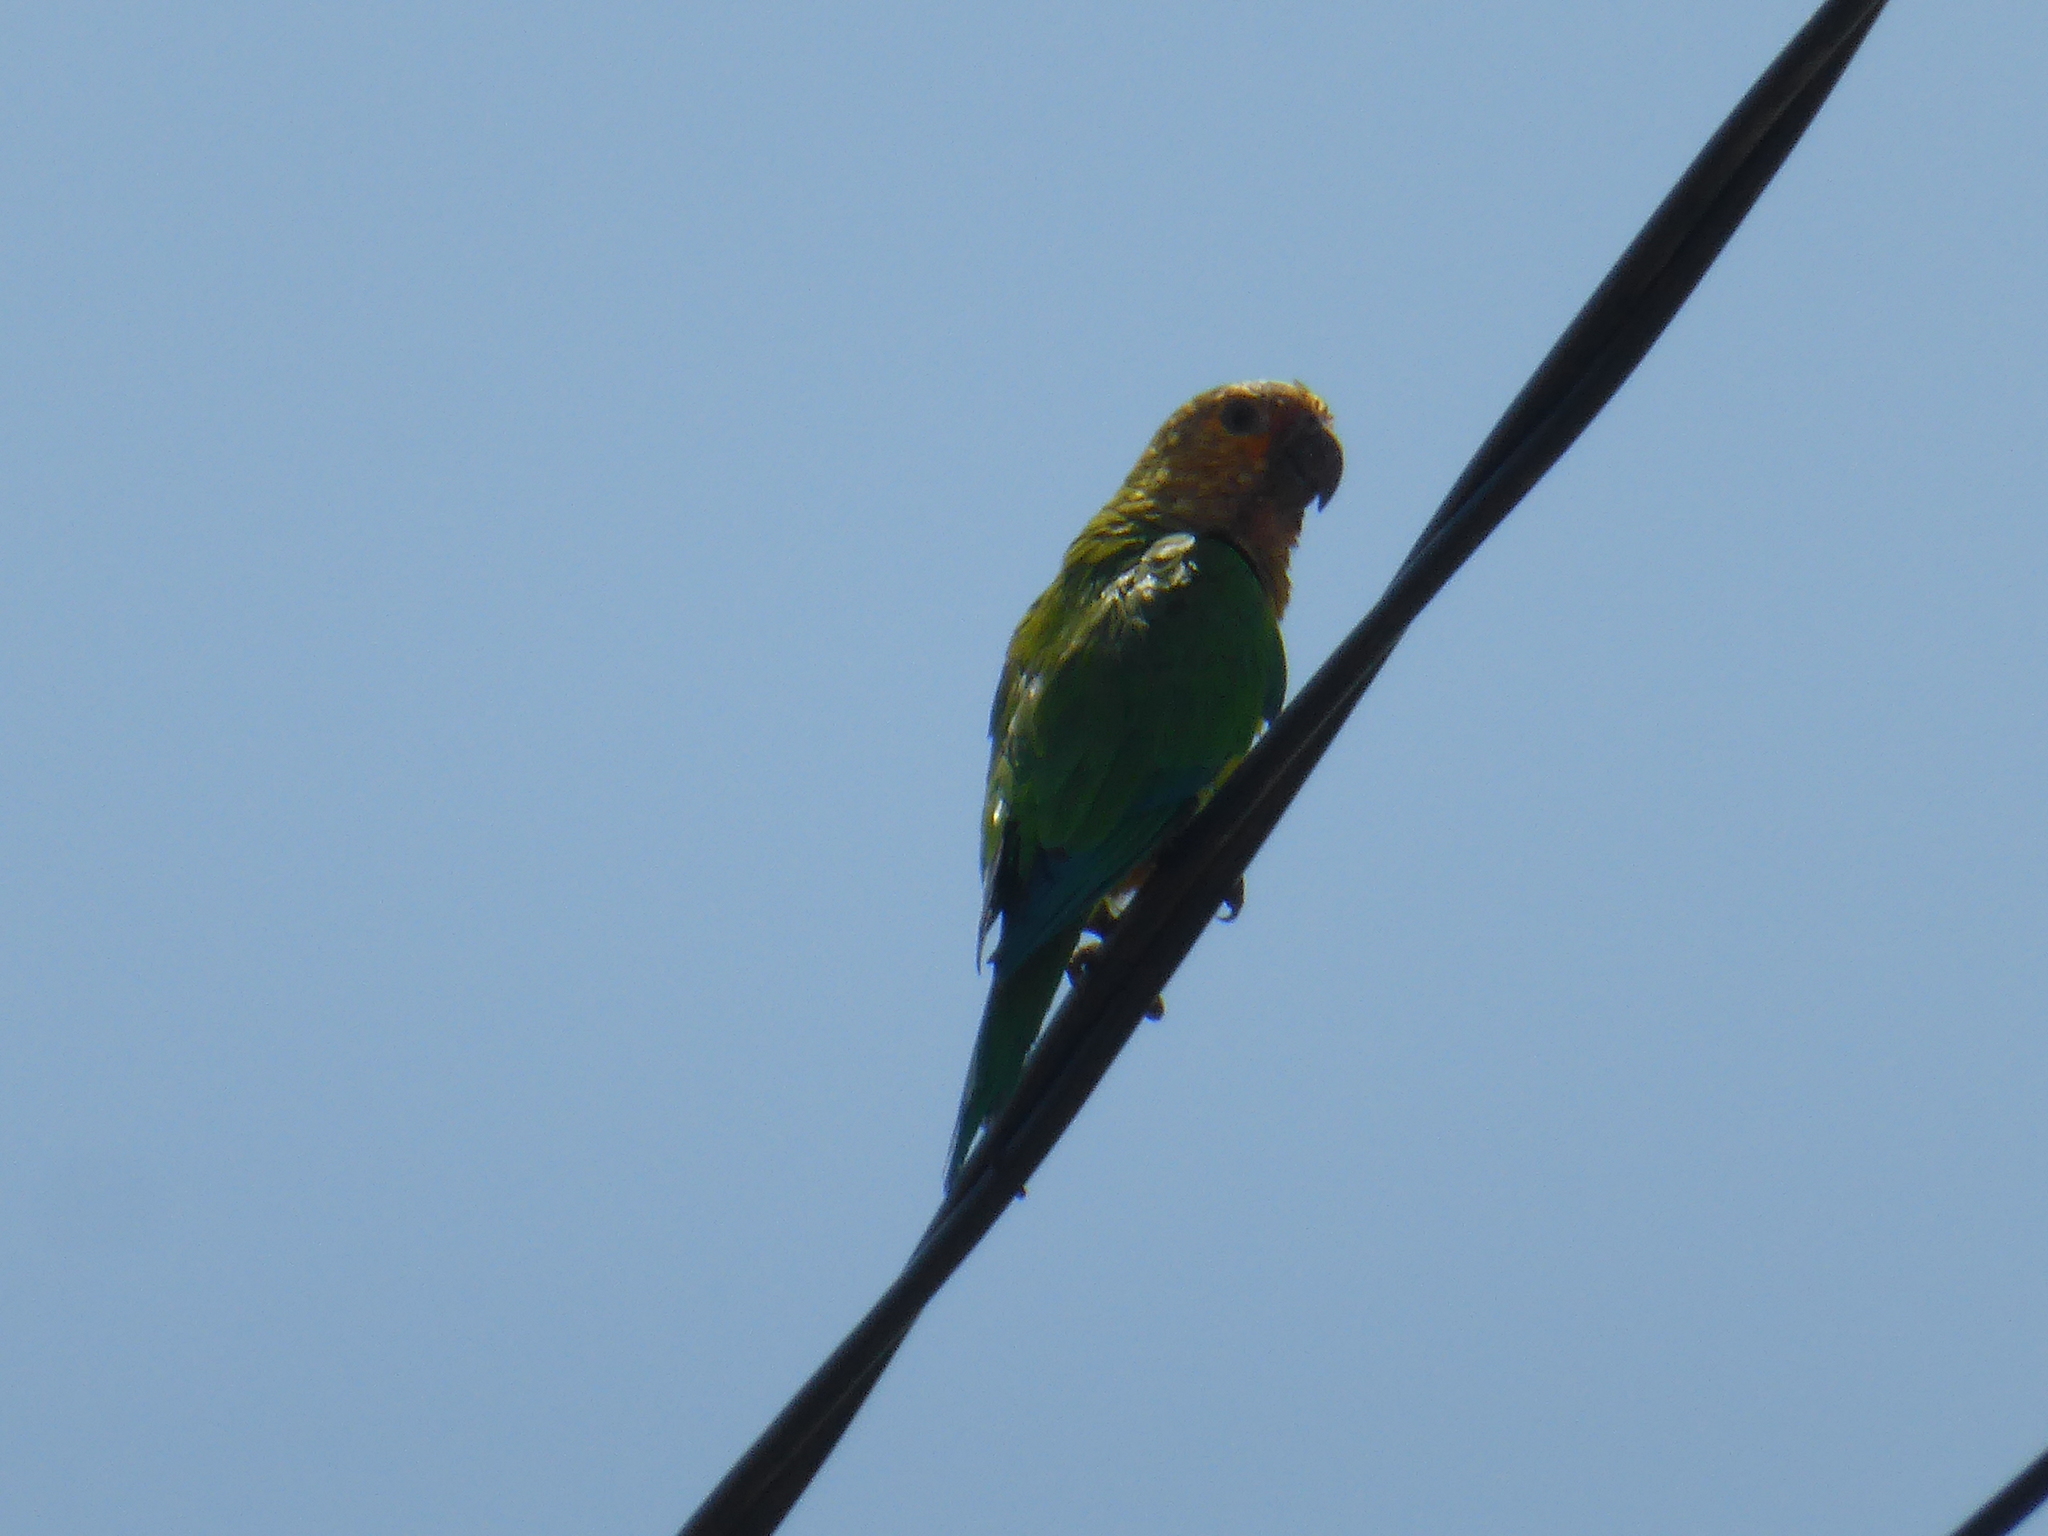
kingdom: Animalia
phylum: Chordata
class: Aves
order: Psittaciformes
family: Psittacidae
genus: Aratinga
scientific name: Aratinga pertinax
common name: Brown-throated parakeet
